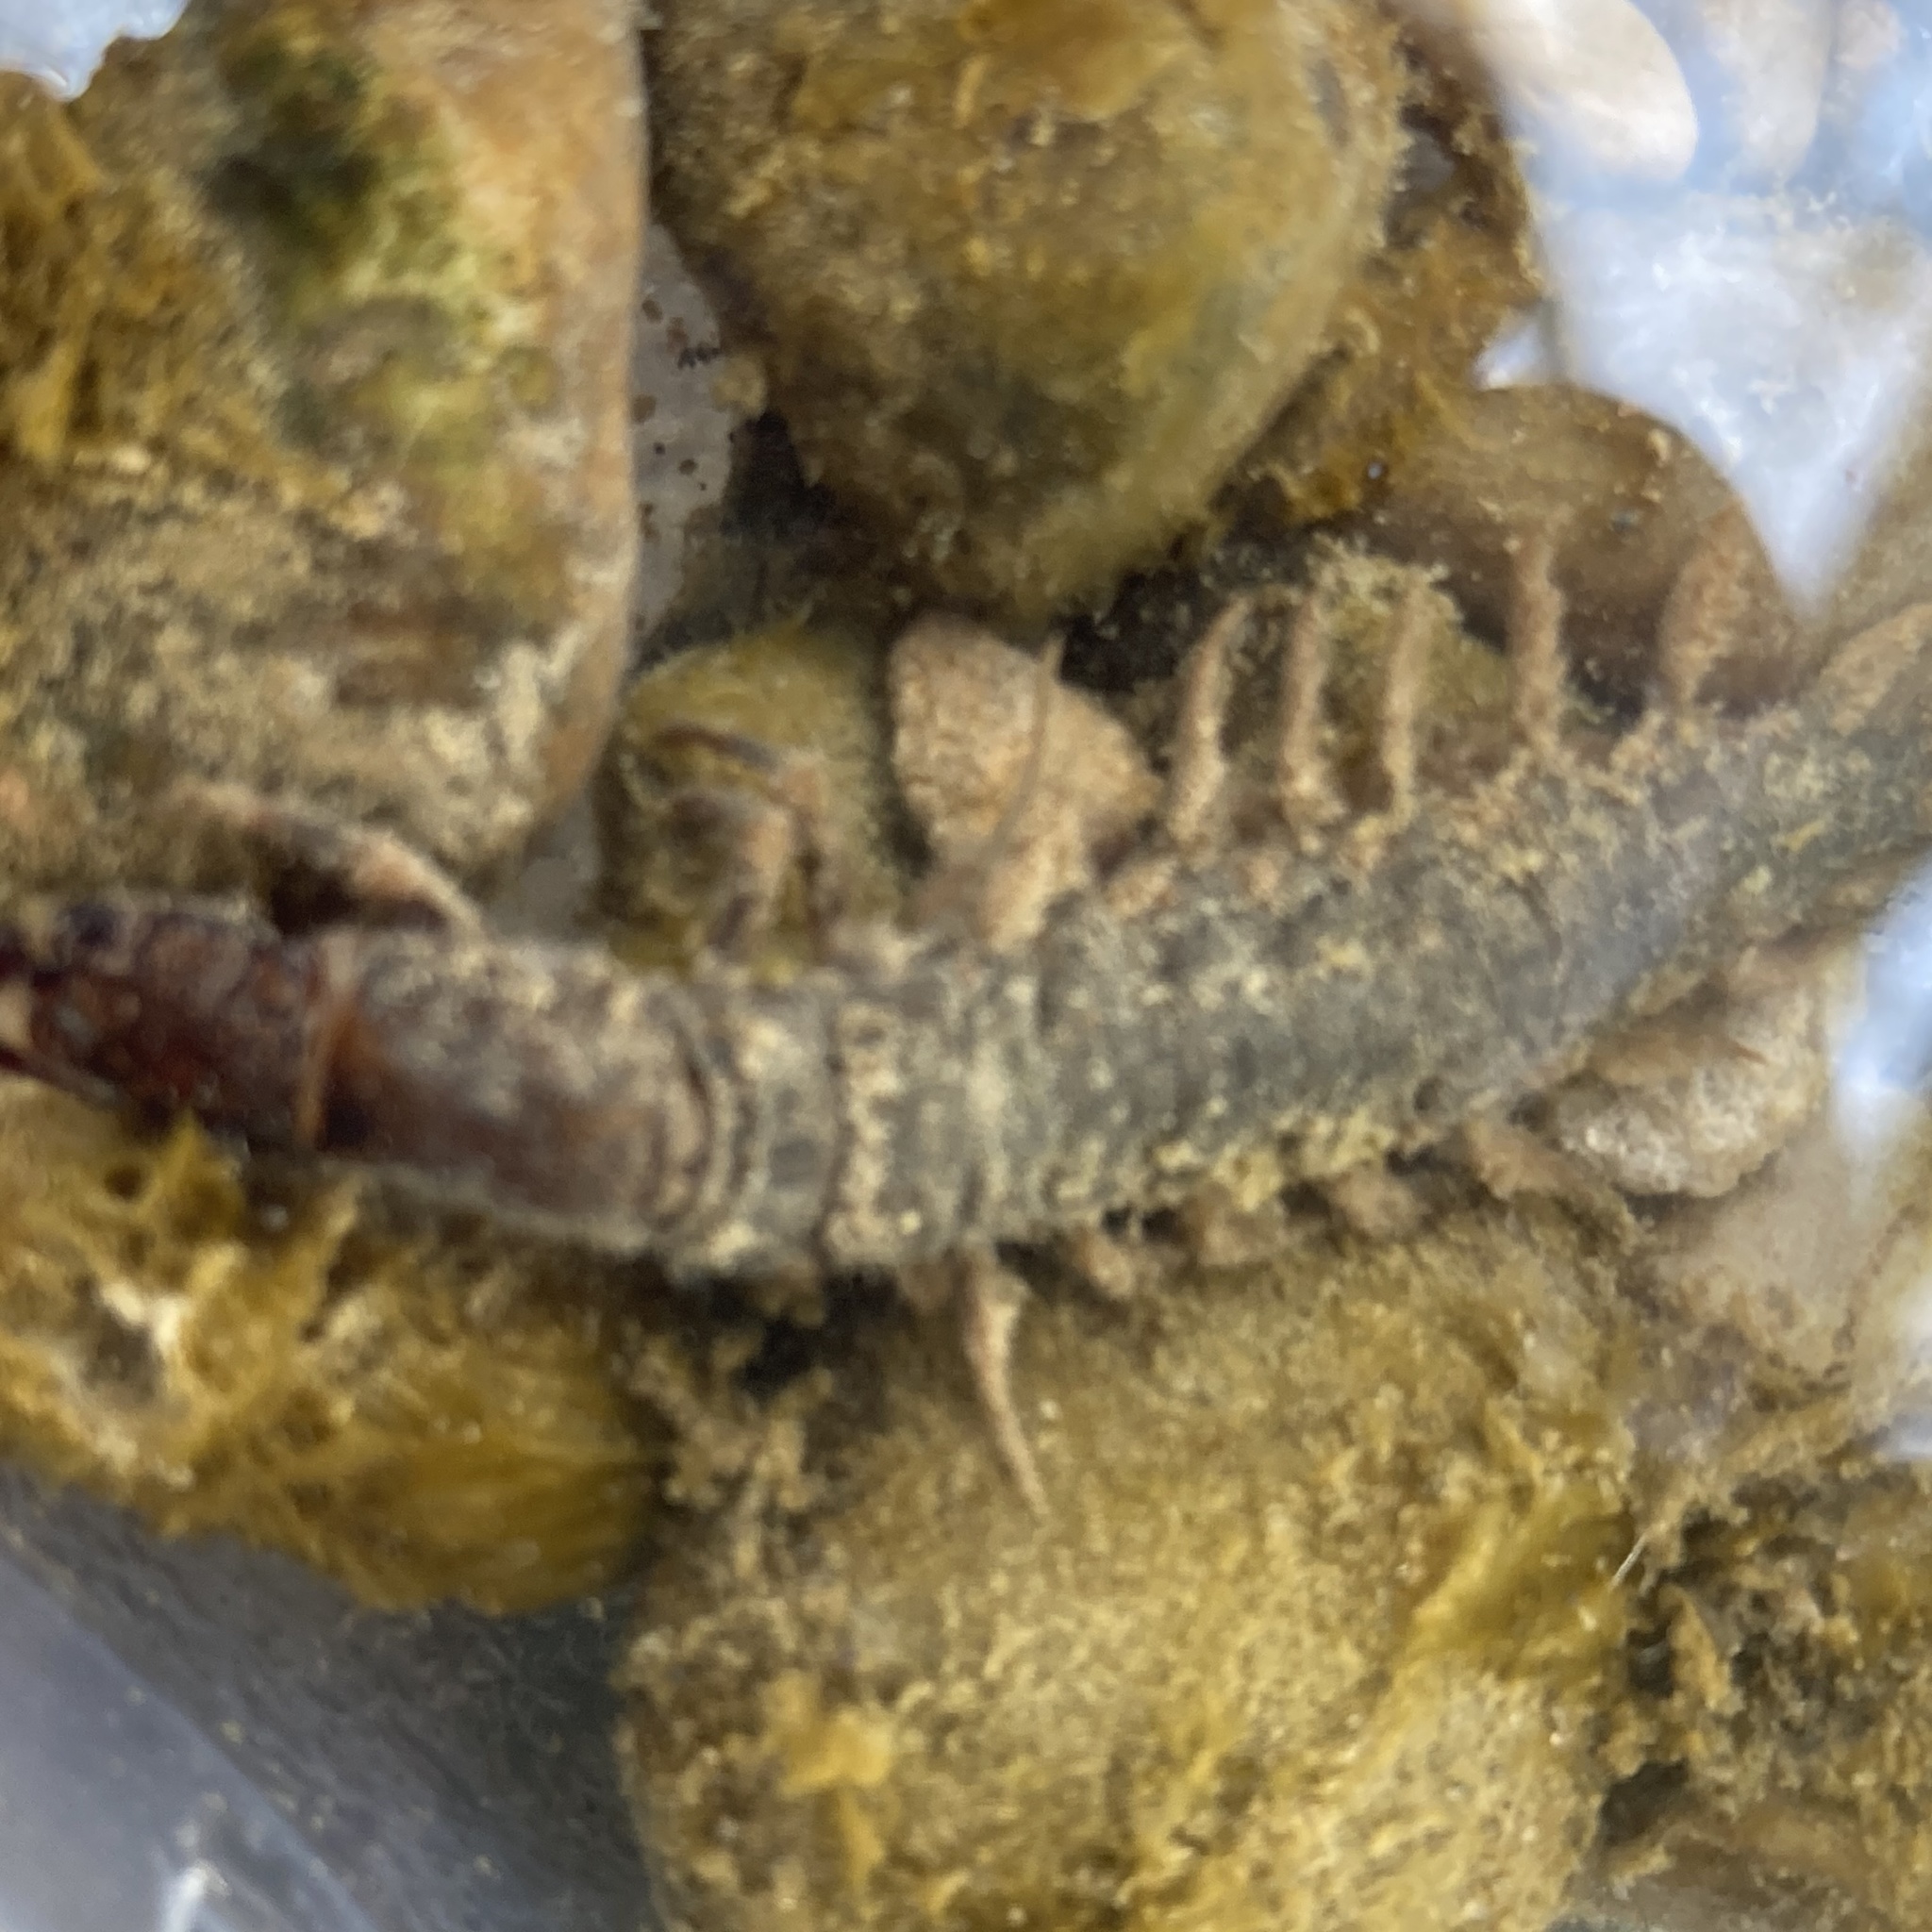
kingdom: Animalia
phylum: Arthropoda
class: Insecta
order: Megaloptera
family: Corydalidae
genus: Corydalus
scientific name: Corydalus cornutus
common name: Dobsonfly
